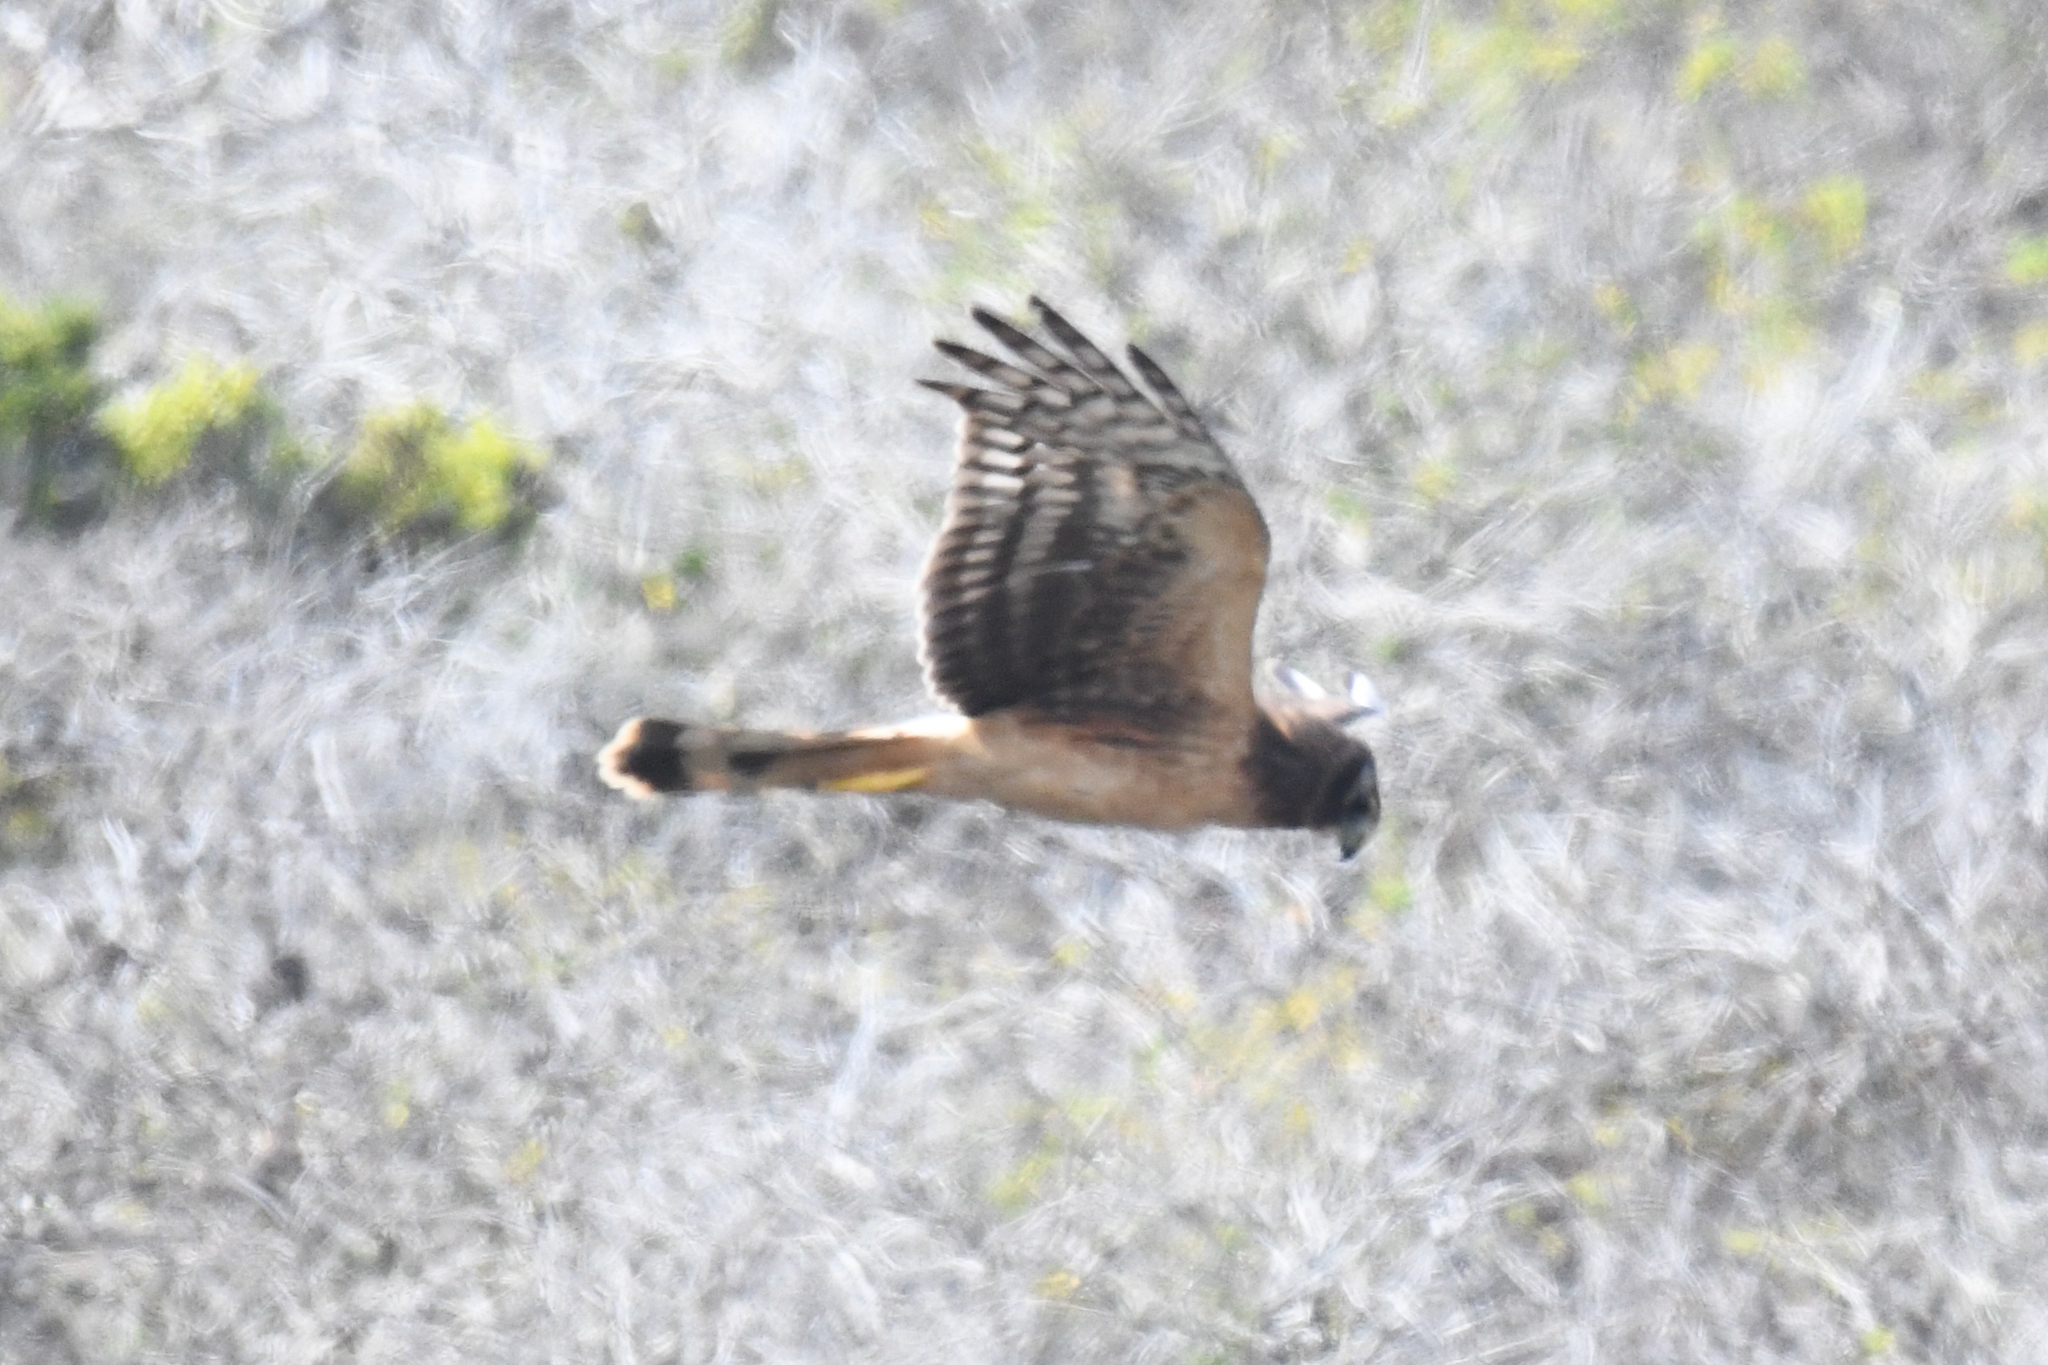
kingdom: Animalia
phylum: Chordata
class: Aves
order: Accipitriformes
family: Accipitridae
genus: Circus
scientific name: Circus cyaneus
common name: Hen harrier
